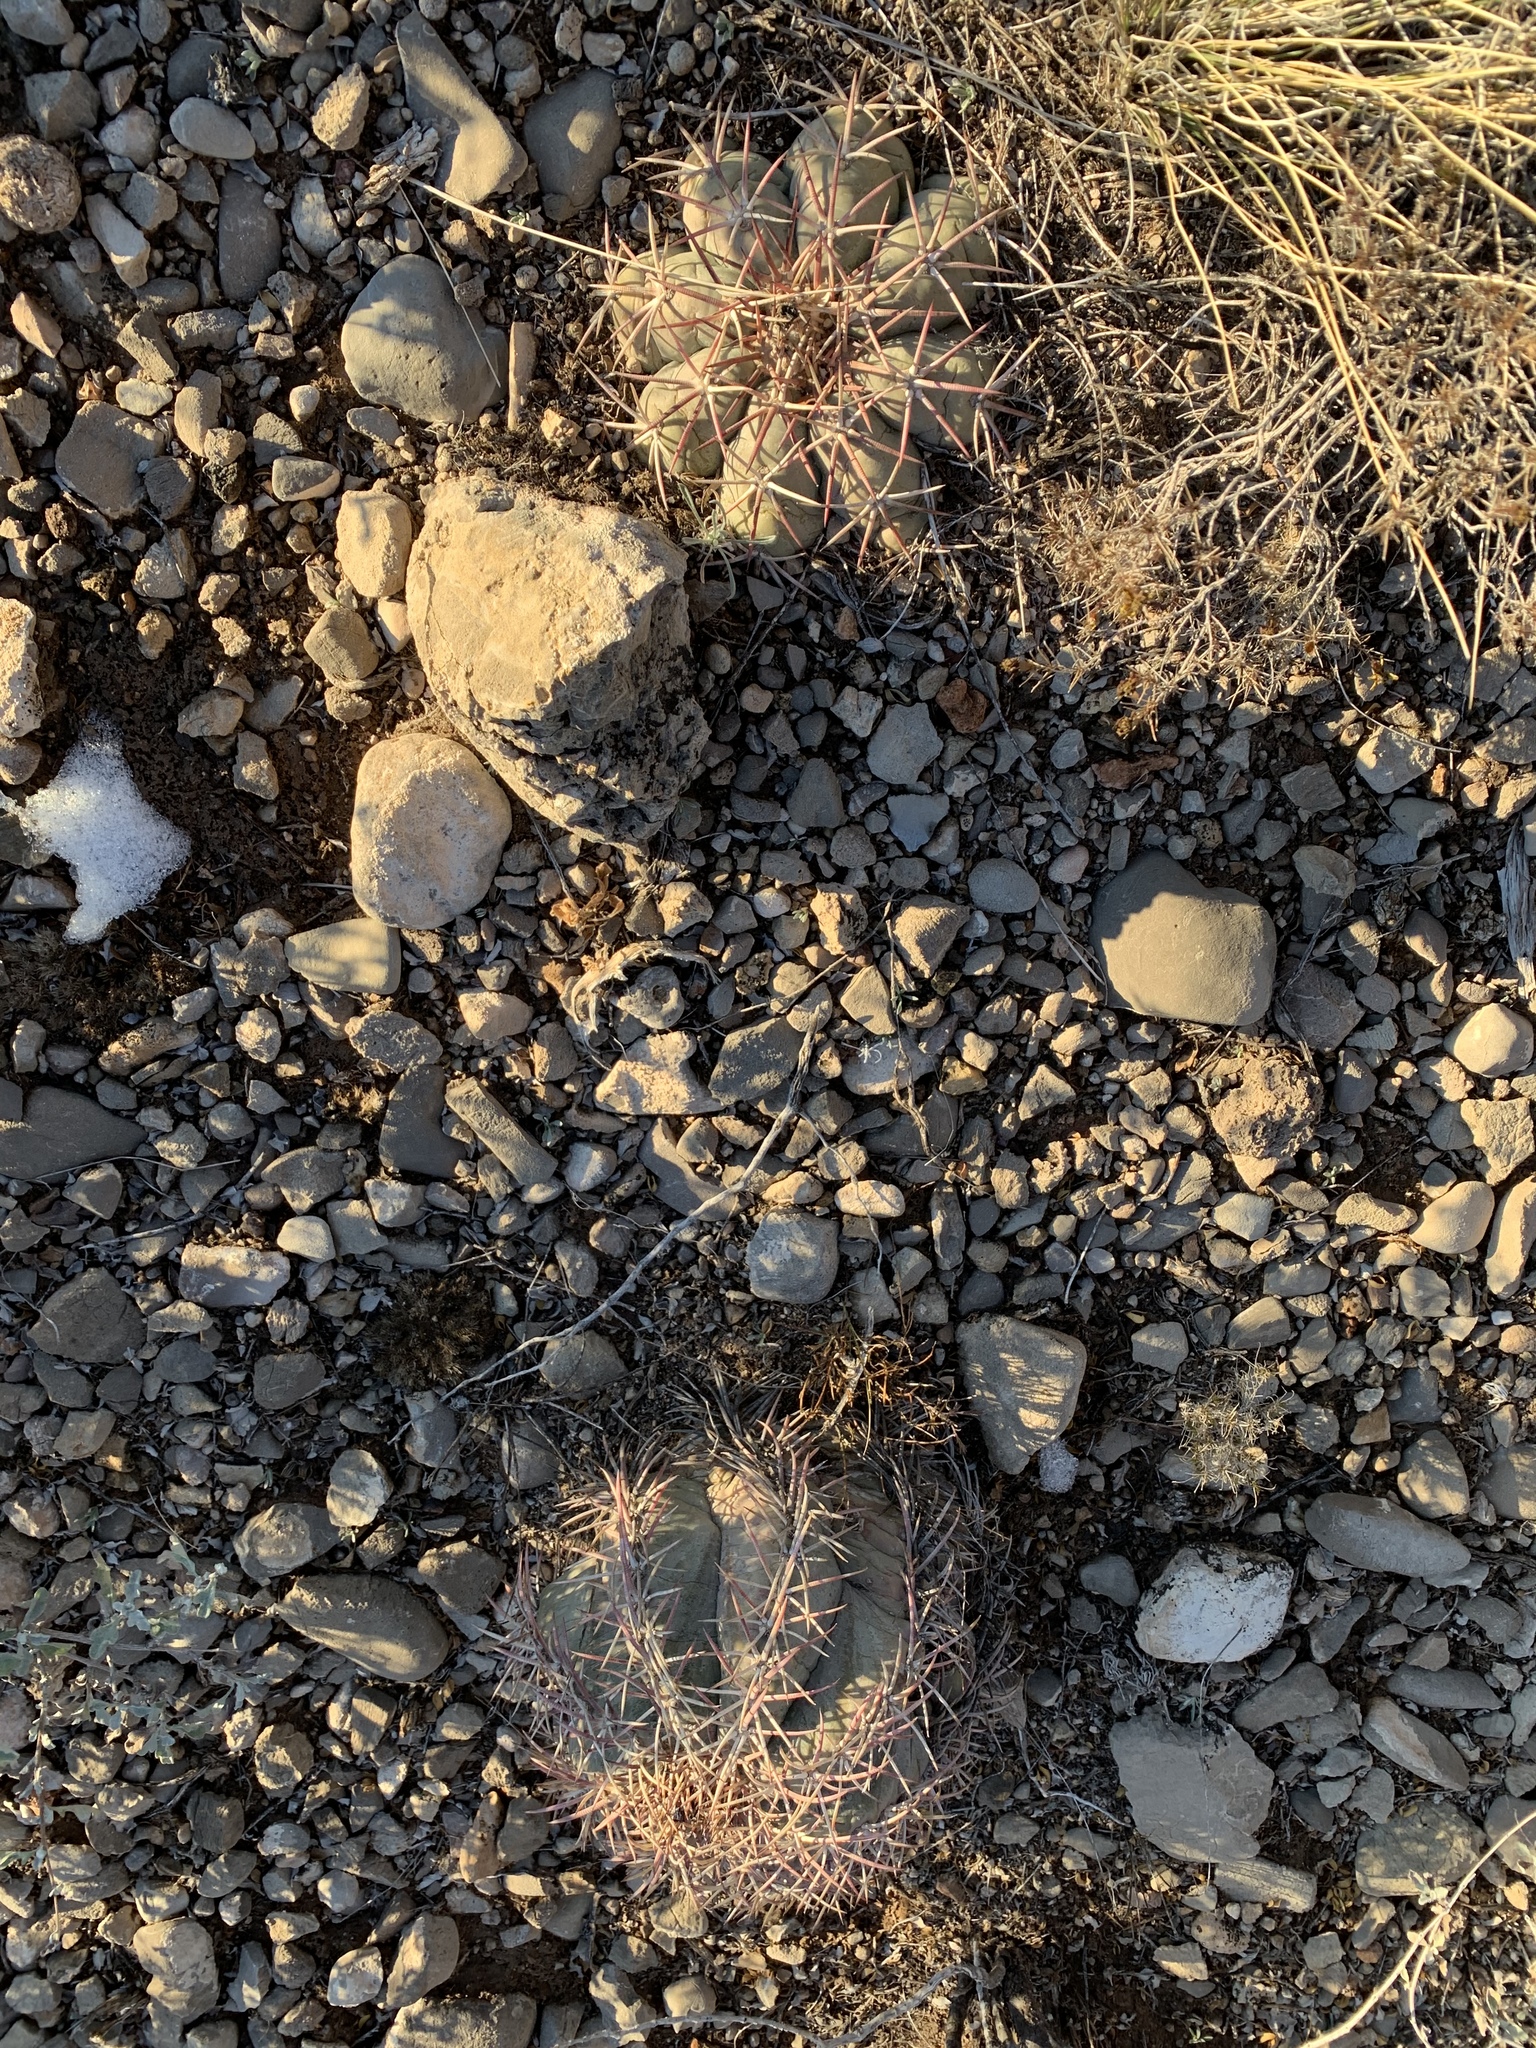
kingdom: Plantae
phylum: Tracheophyta
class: Magnoliopsida
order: Caryophyllales
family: Cactaceae
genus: Echinocactus
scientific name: Echinocactus horizonthalonius
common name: Devilshead
